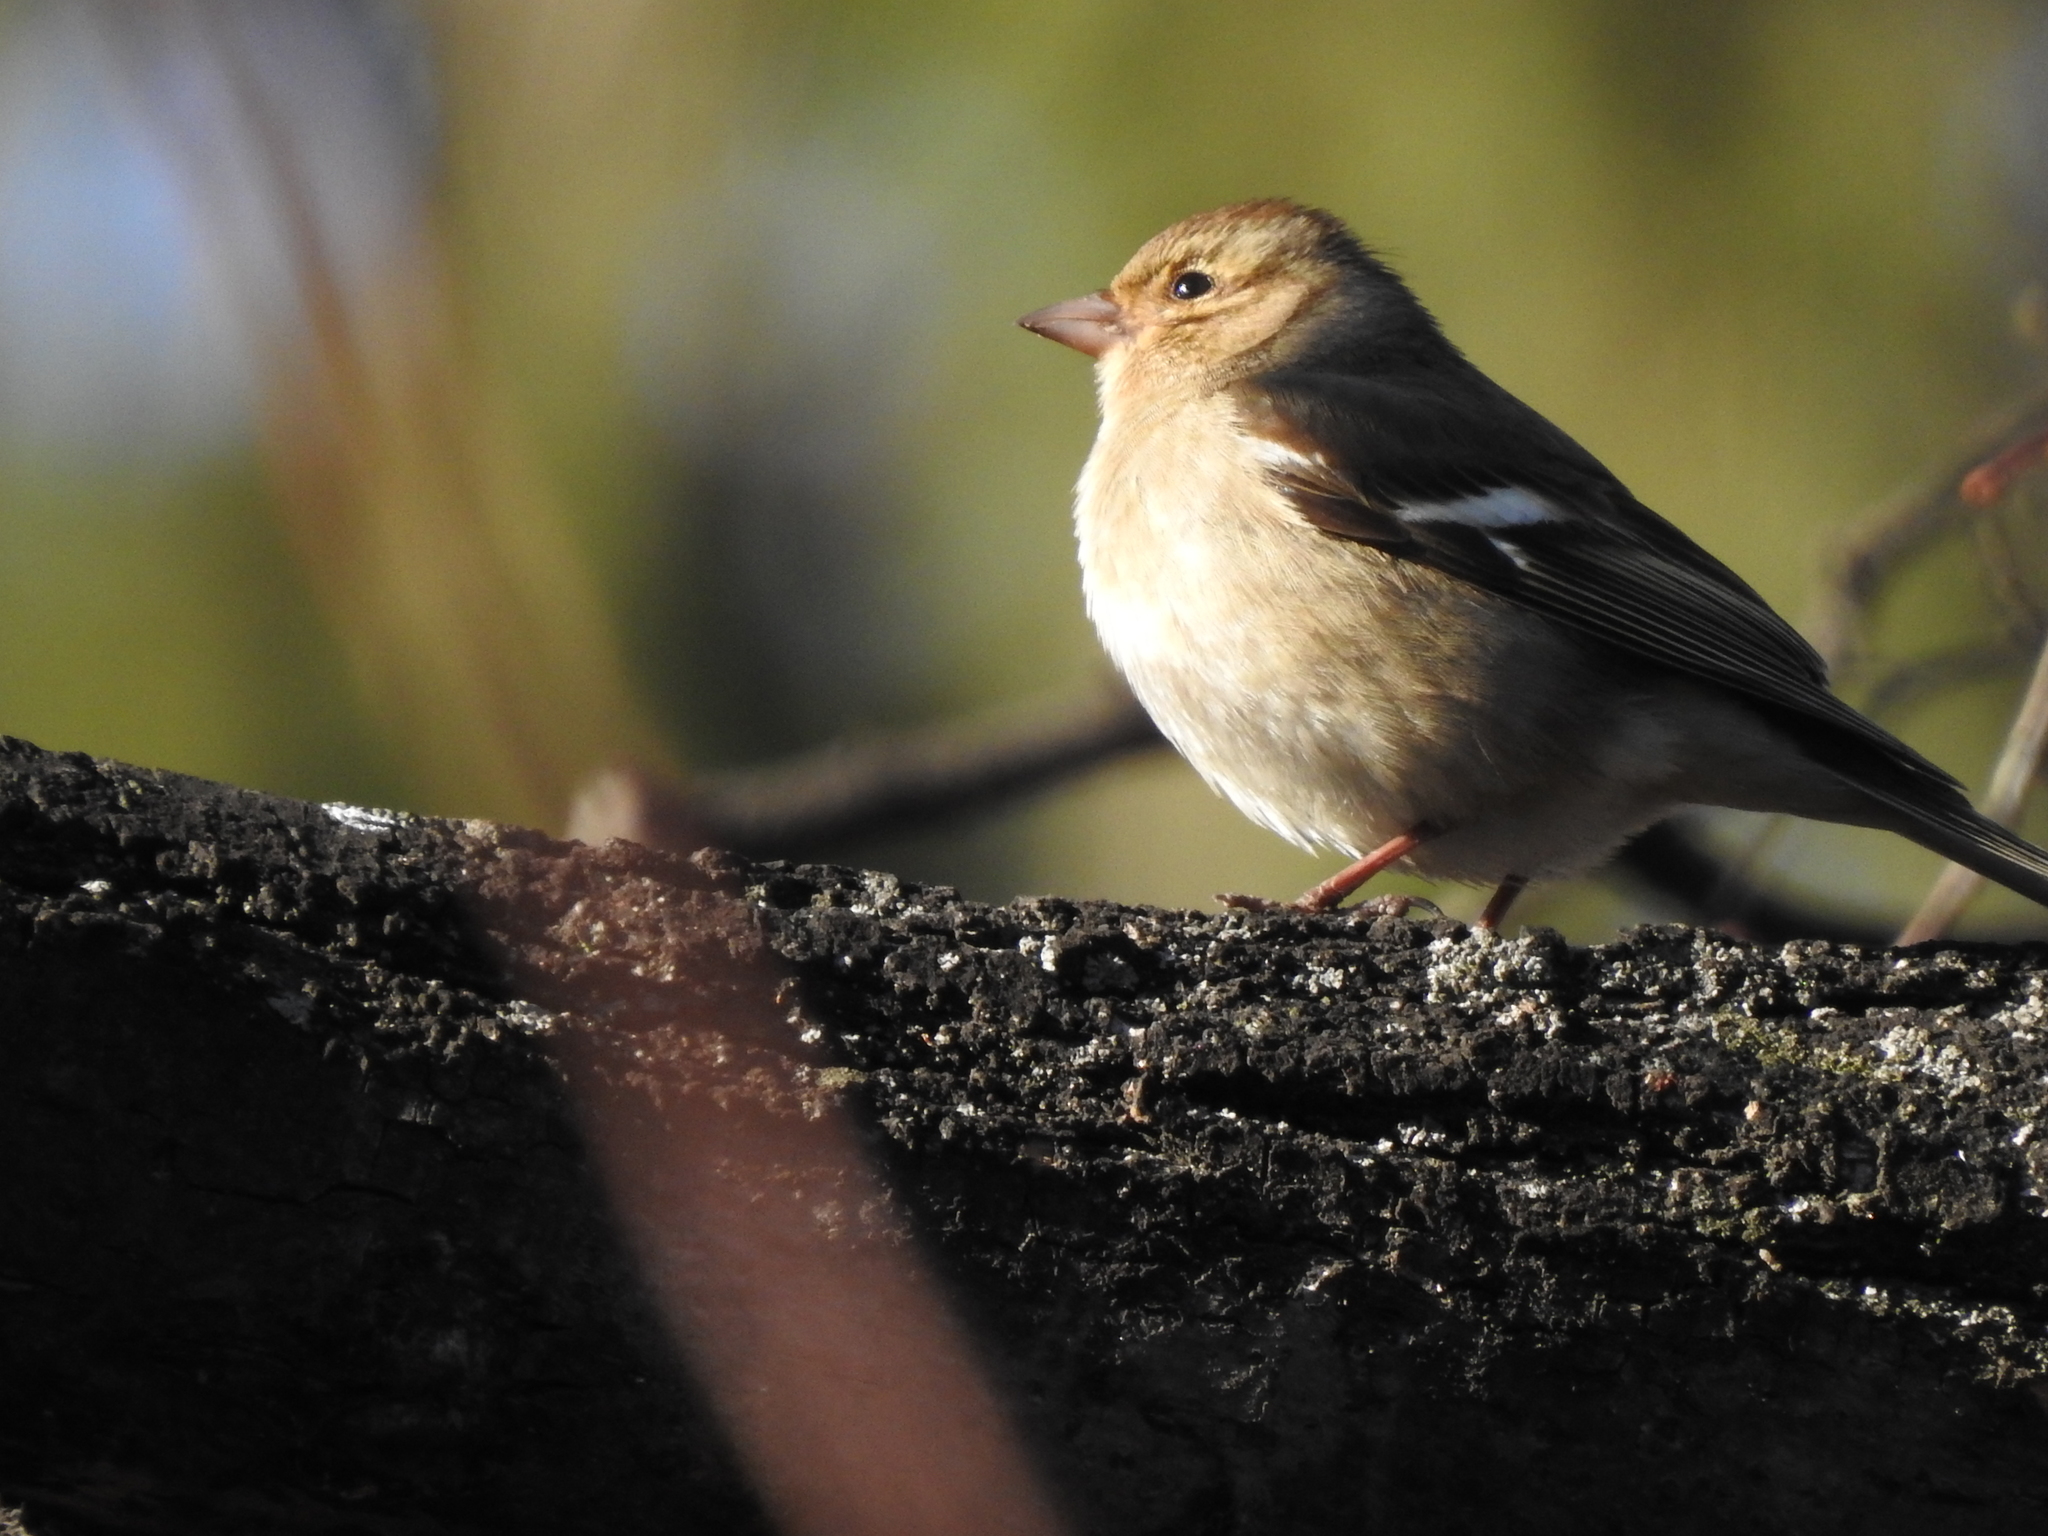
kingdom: Animalia
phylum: Chordata
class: Aves
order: Passeriformes
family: Fringillidae
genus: Fringilla
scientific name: Fringilla coelebs
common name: Common chaffinch
